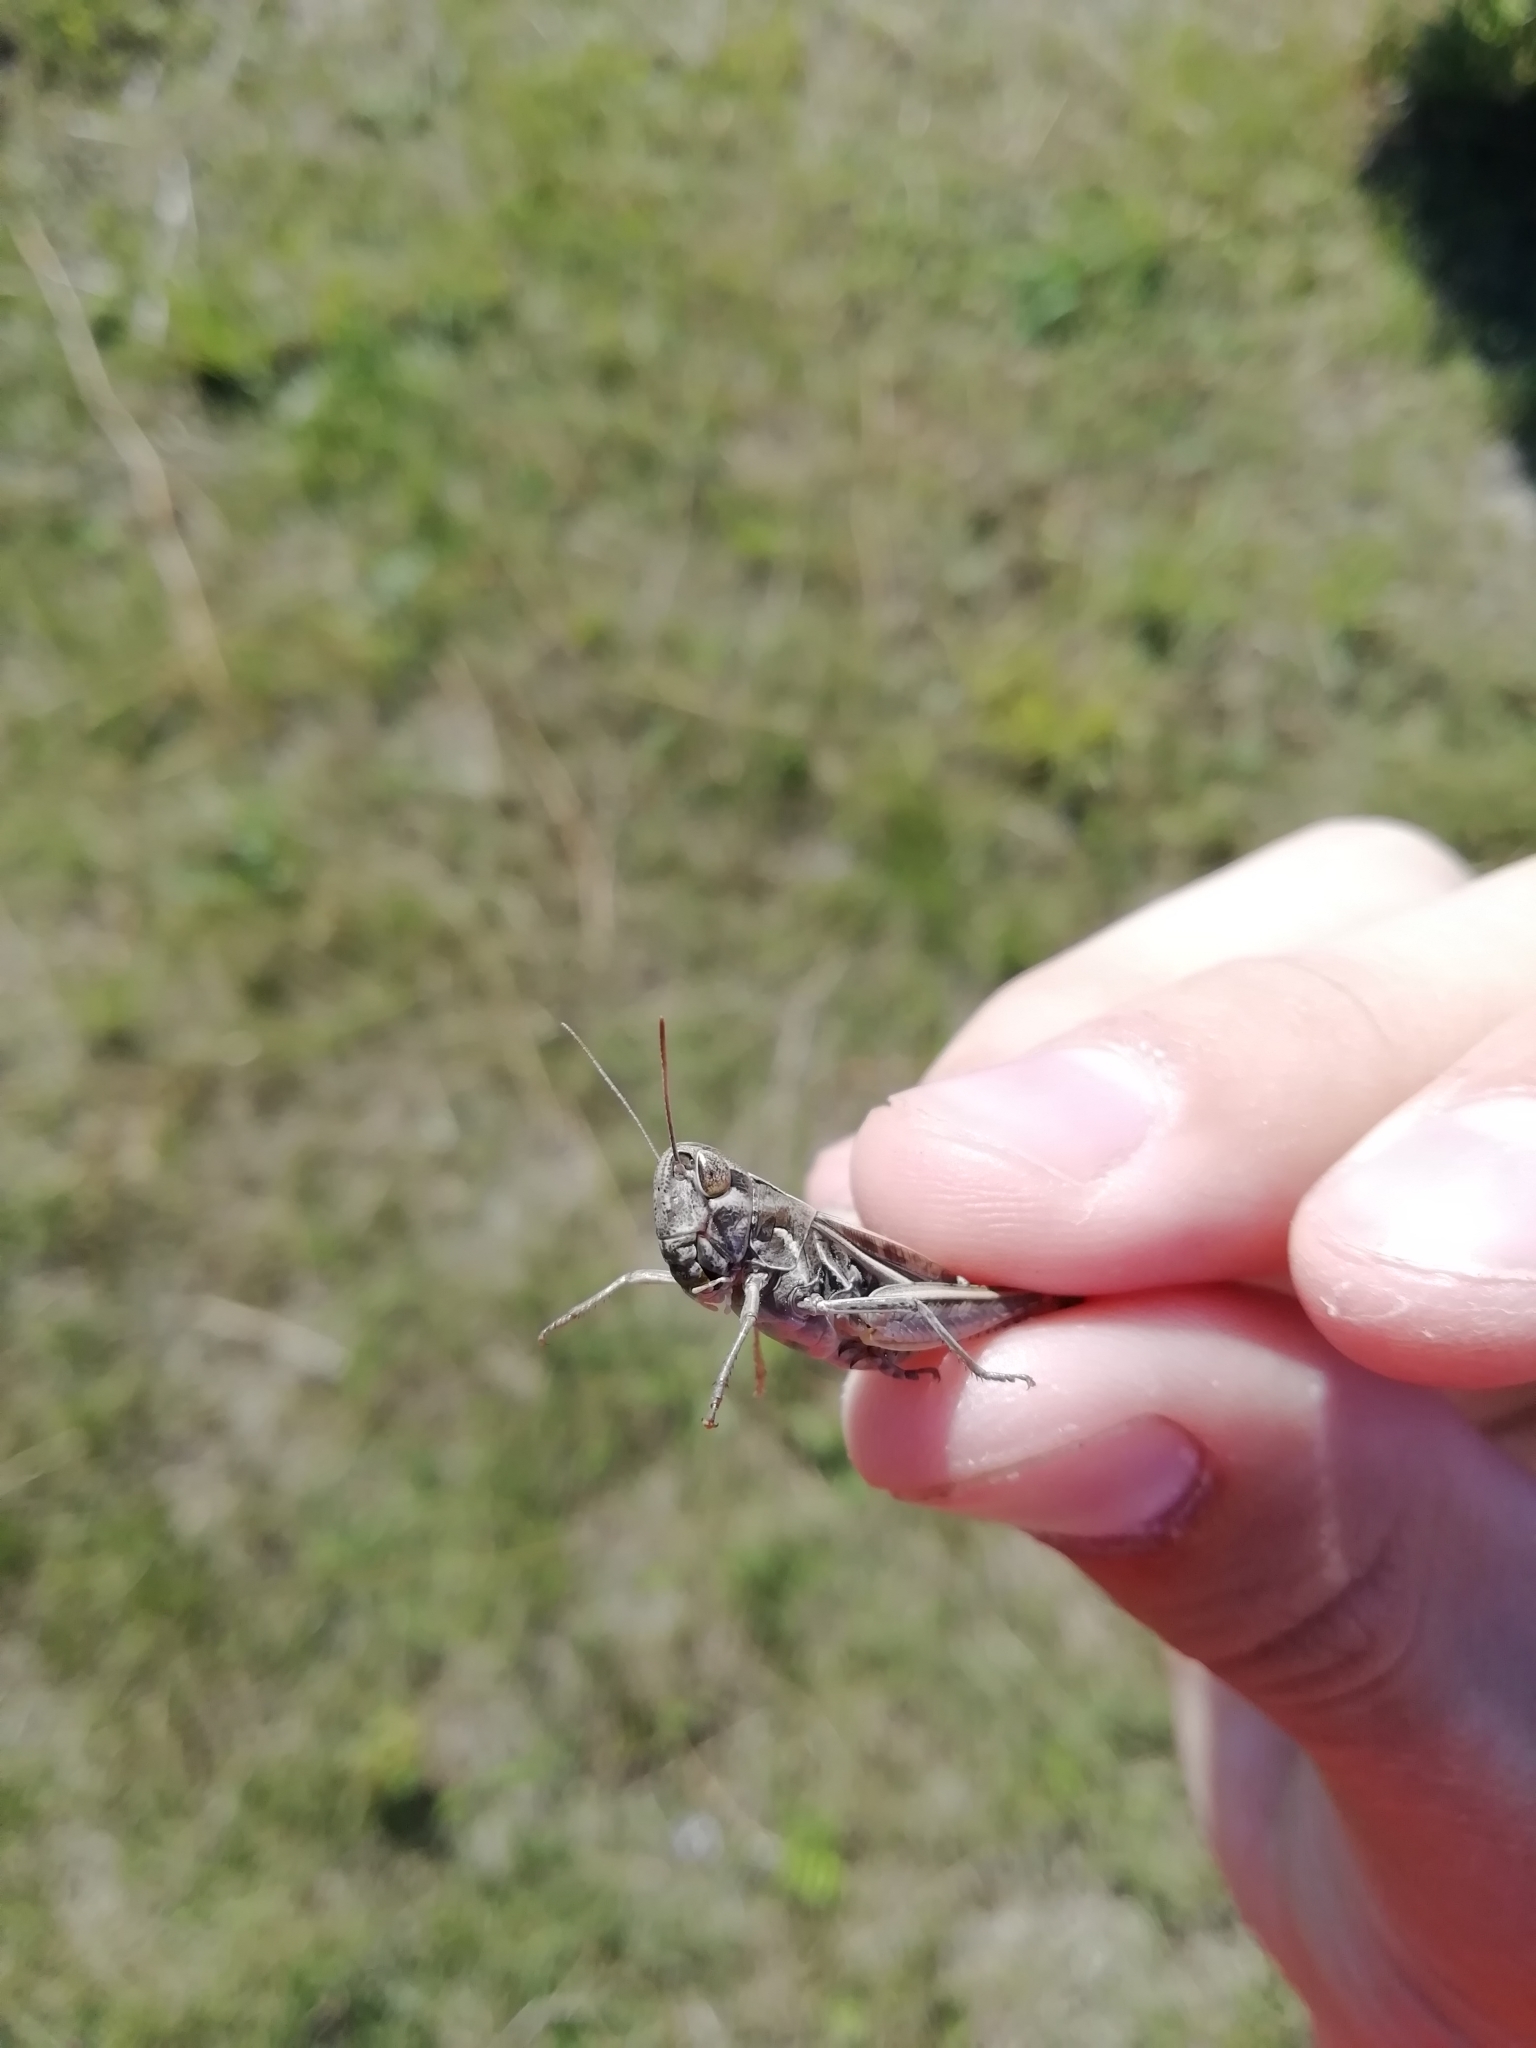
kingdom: Animalia
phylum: Arthropoda
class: Insecta
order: Orthoptera
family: Acrididae
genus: Stenobothrus
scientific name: Stenobothrus lineatus
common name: Stripe-winged grasshopper
